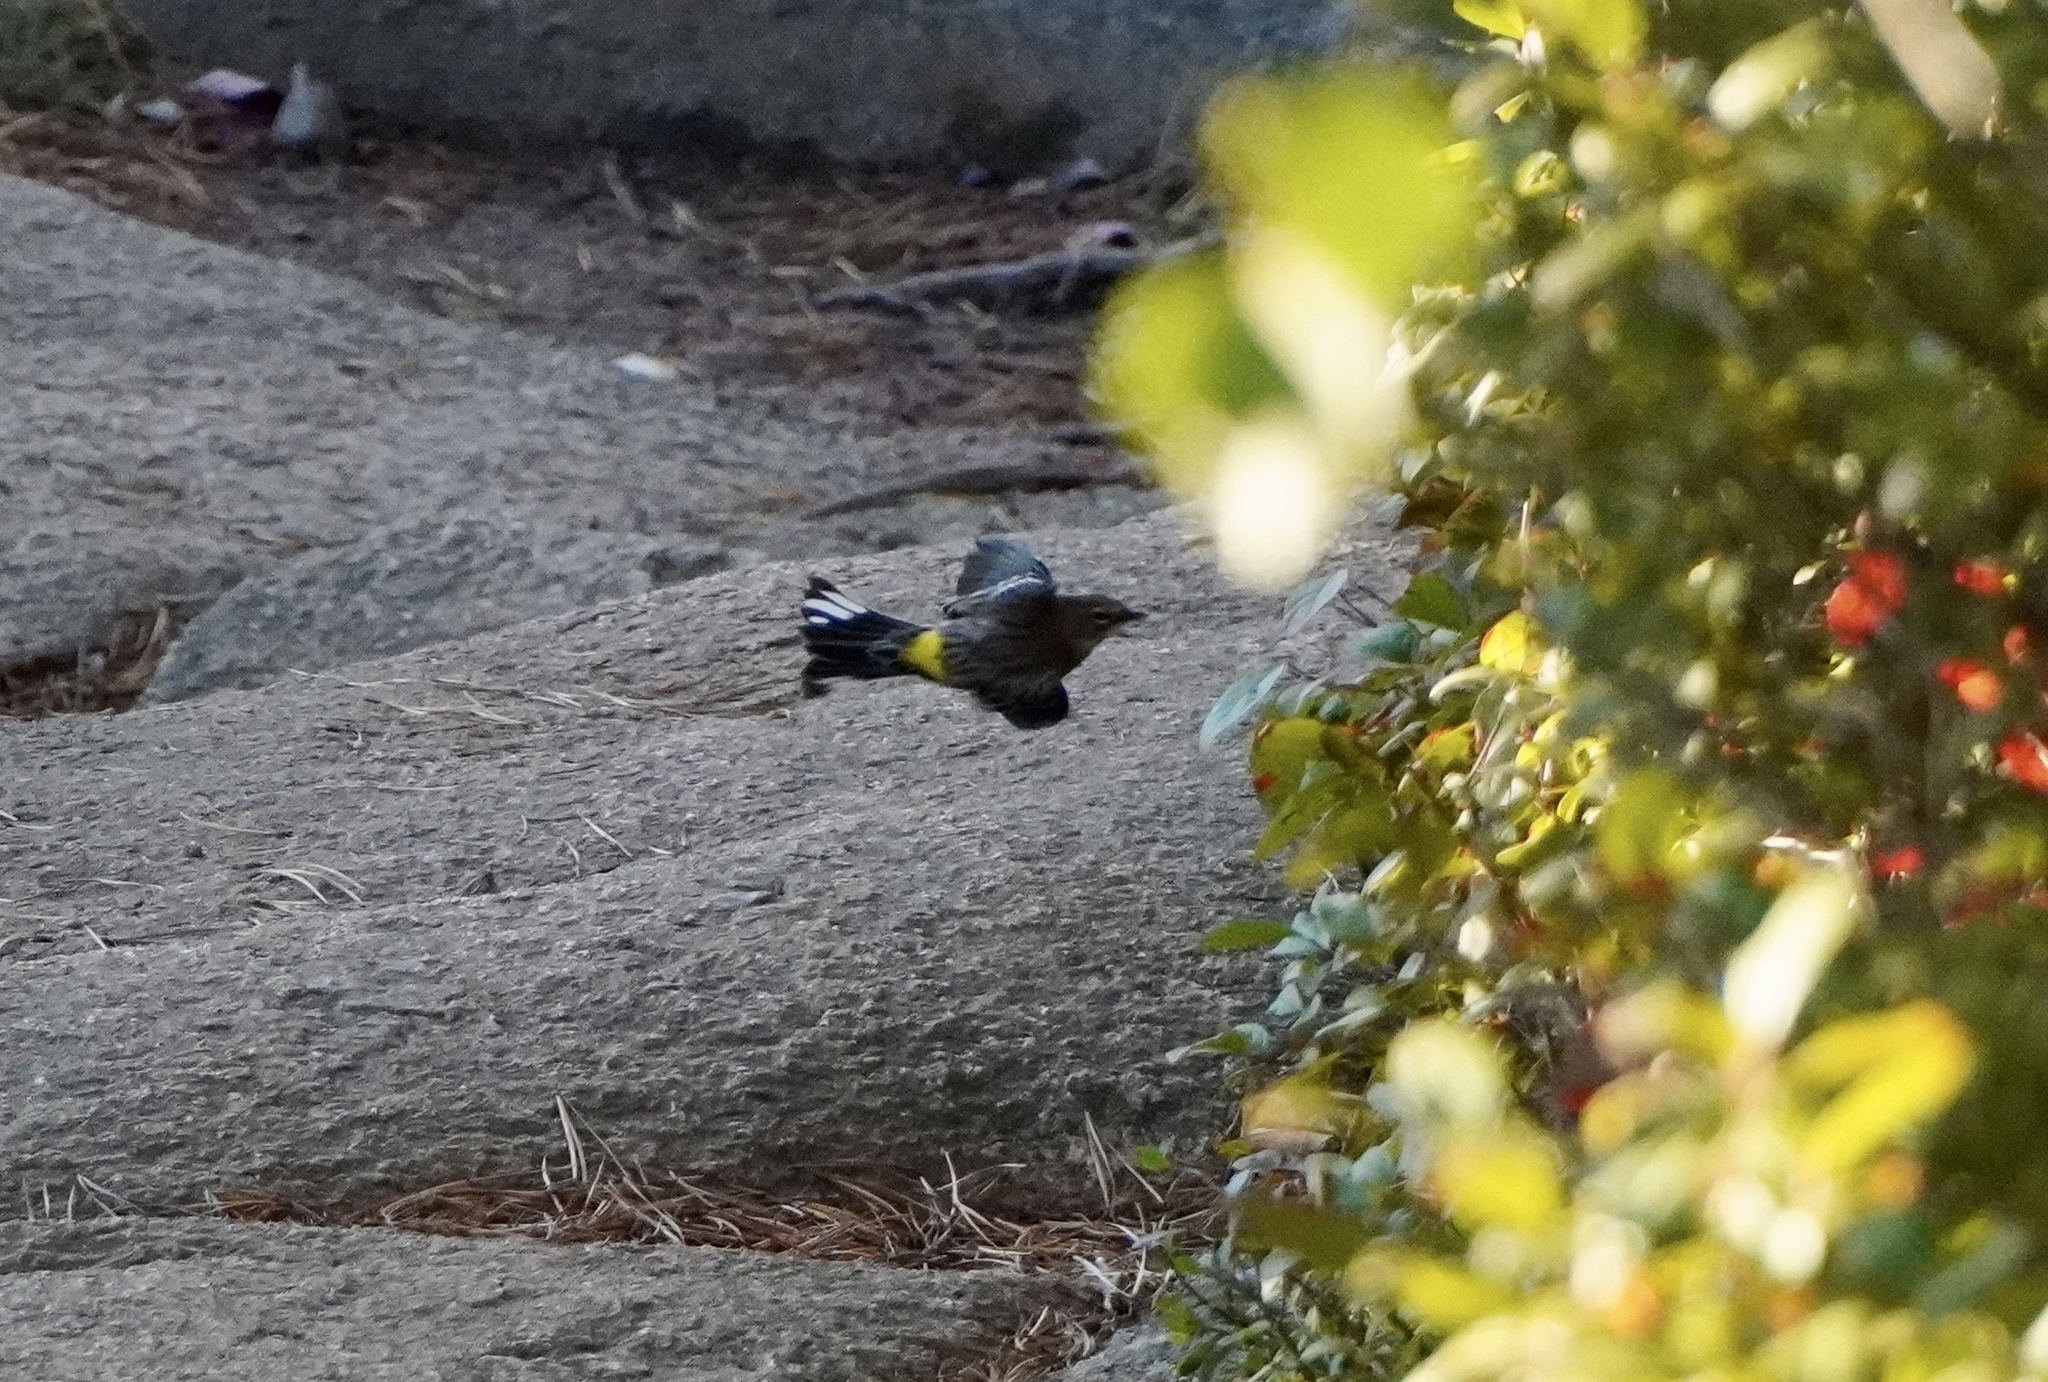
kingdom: Animalia
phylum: Chordata
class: Aves
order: Passeriformes
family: Parulidae
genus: Setophaga
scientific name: Setophaga coronata
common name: Myrtle warbler
